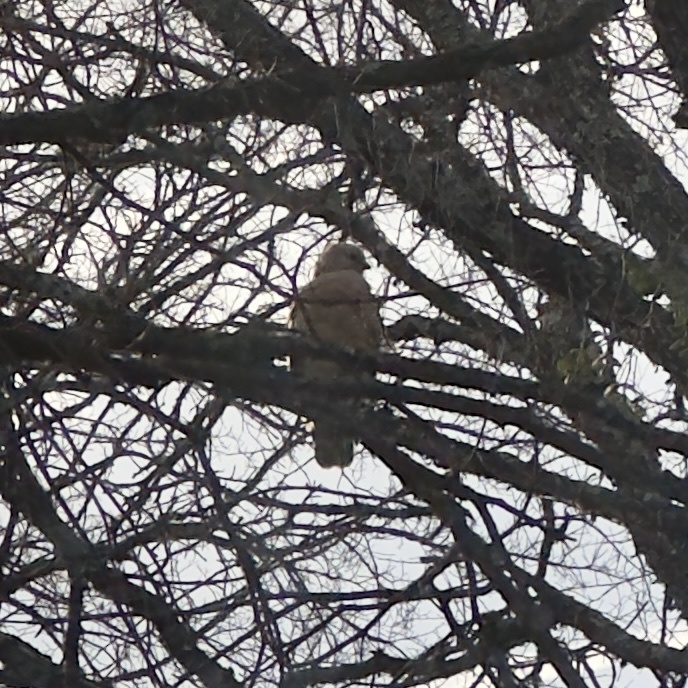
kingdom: Animalia
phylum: Chordata
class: Aves
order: Accipitriformes
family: Accipitridae
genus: Buteo
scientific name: Buteo lineatus
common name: Red-shouldered hawk
